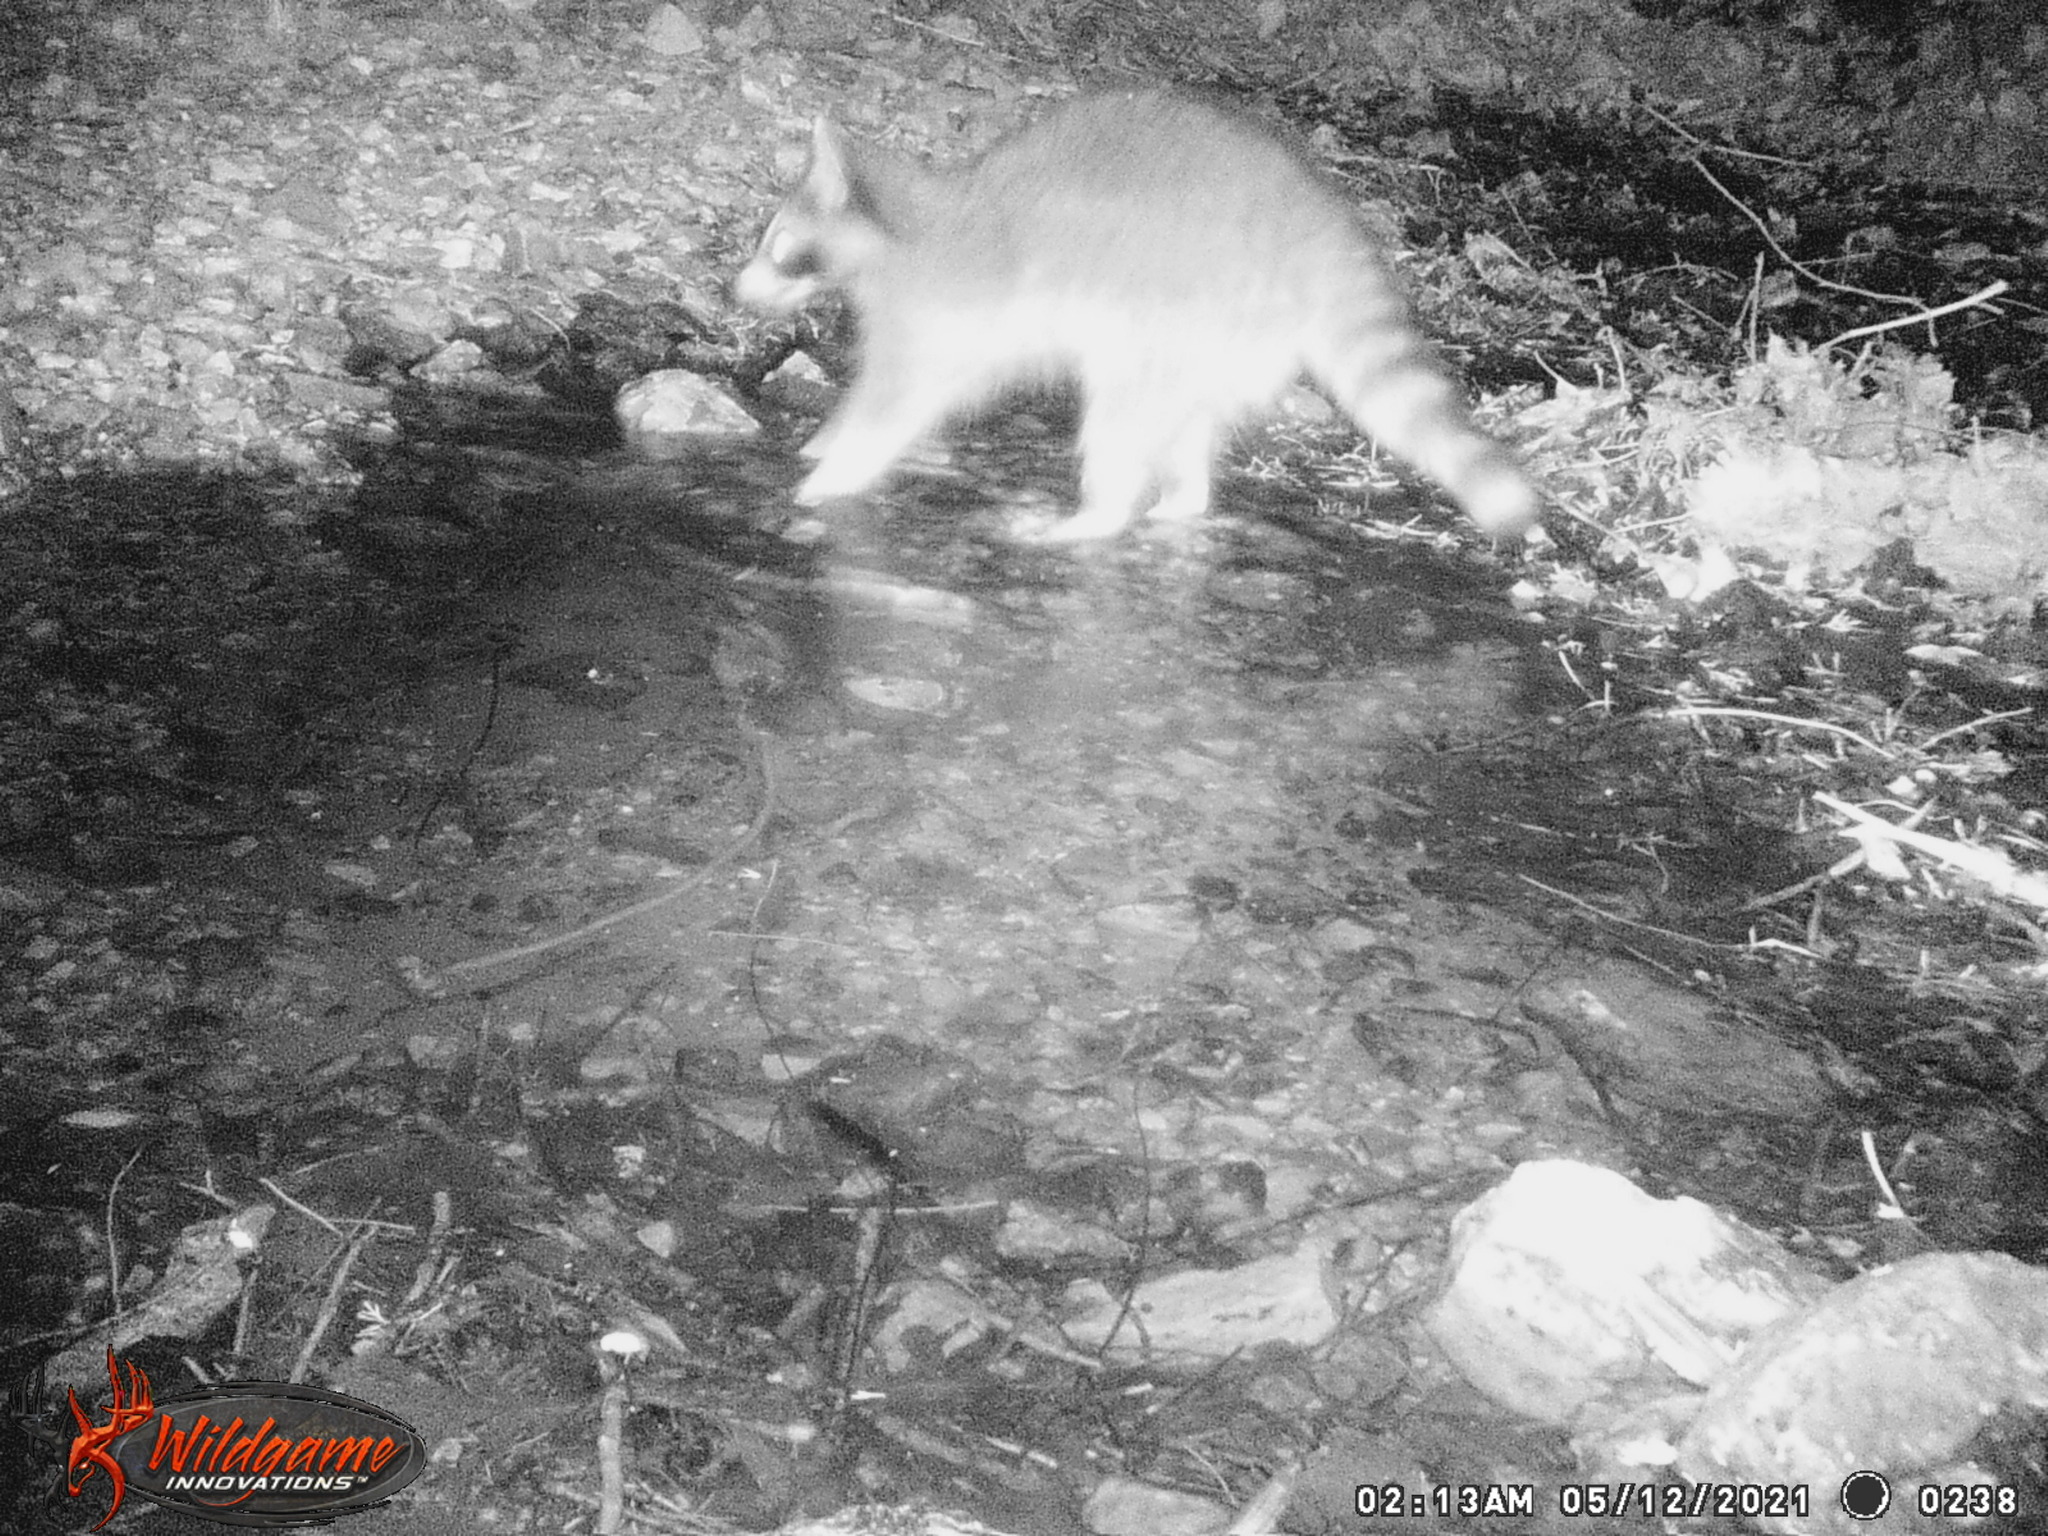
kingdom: Animalia
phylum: Chordata
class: Mammalia
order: Carnivora
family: Procyonidae
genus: Procyon
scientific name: Procyon lotor
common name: Raccoon
